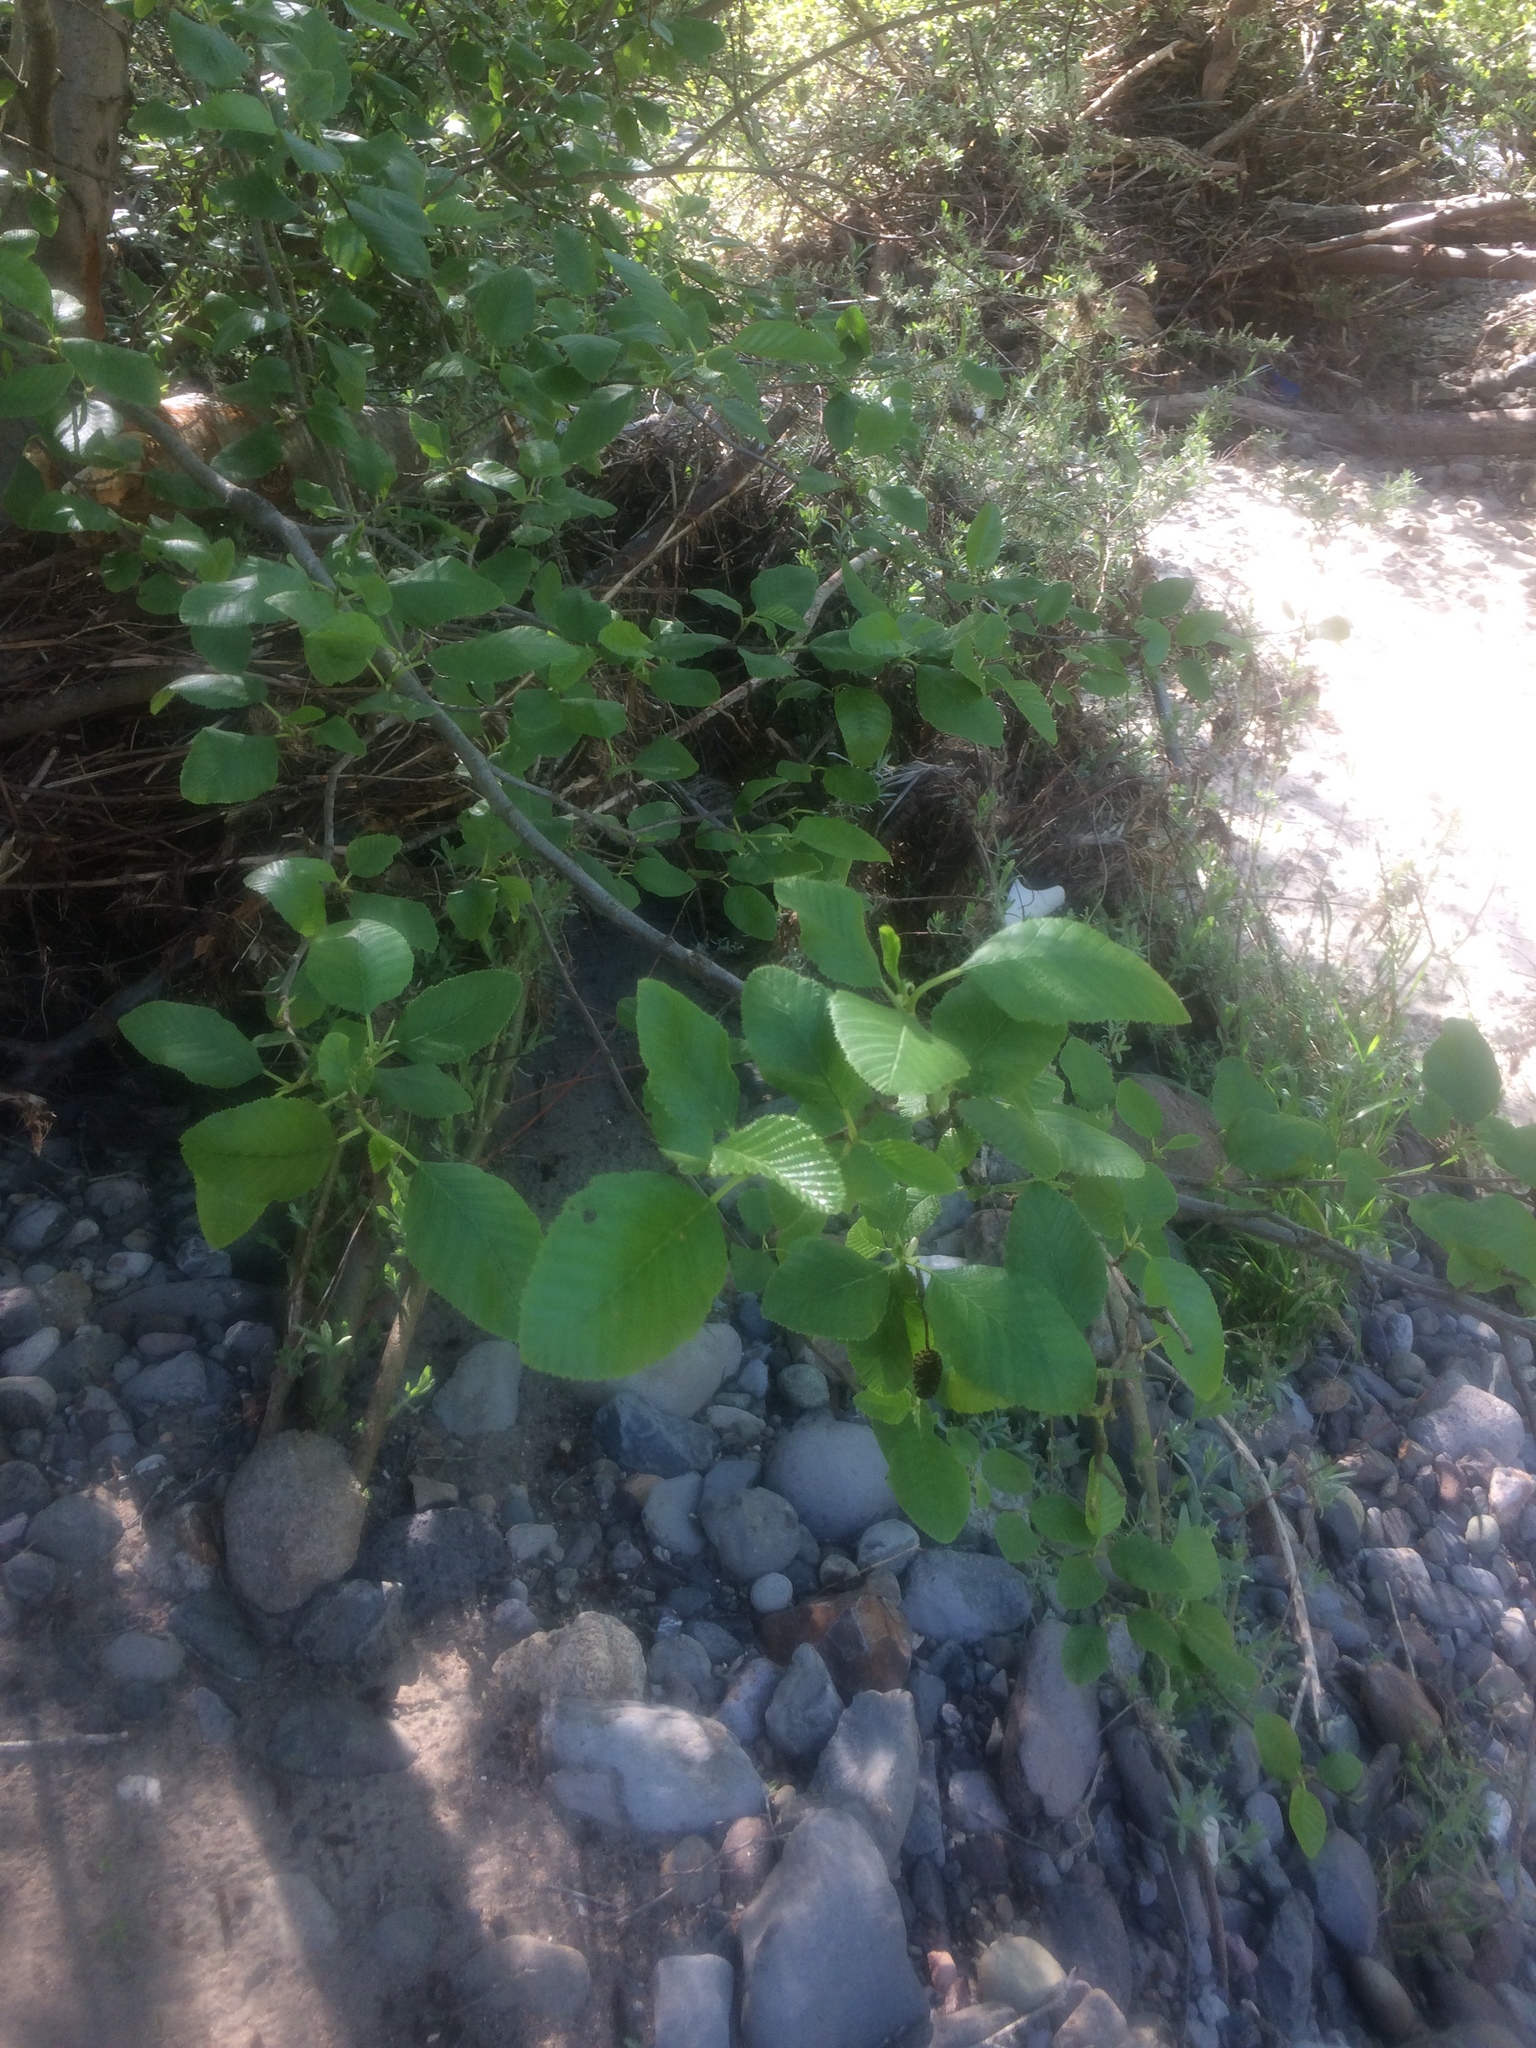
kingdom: Plantae
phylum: Tracheophyta
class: Magnoliopsida
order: Fagales
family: Betulaceae
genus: Alnus
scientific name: Alnus rhombifolia
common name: California alder
